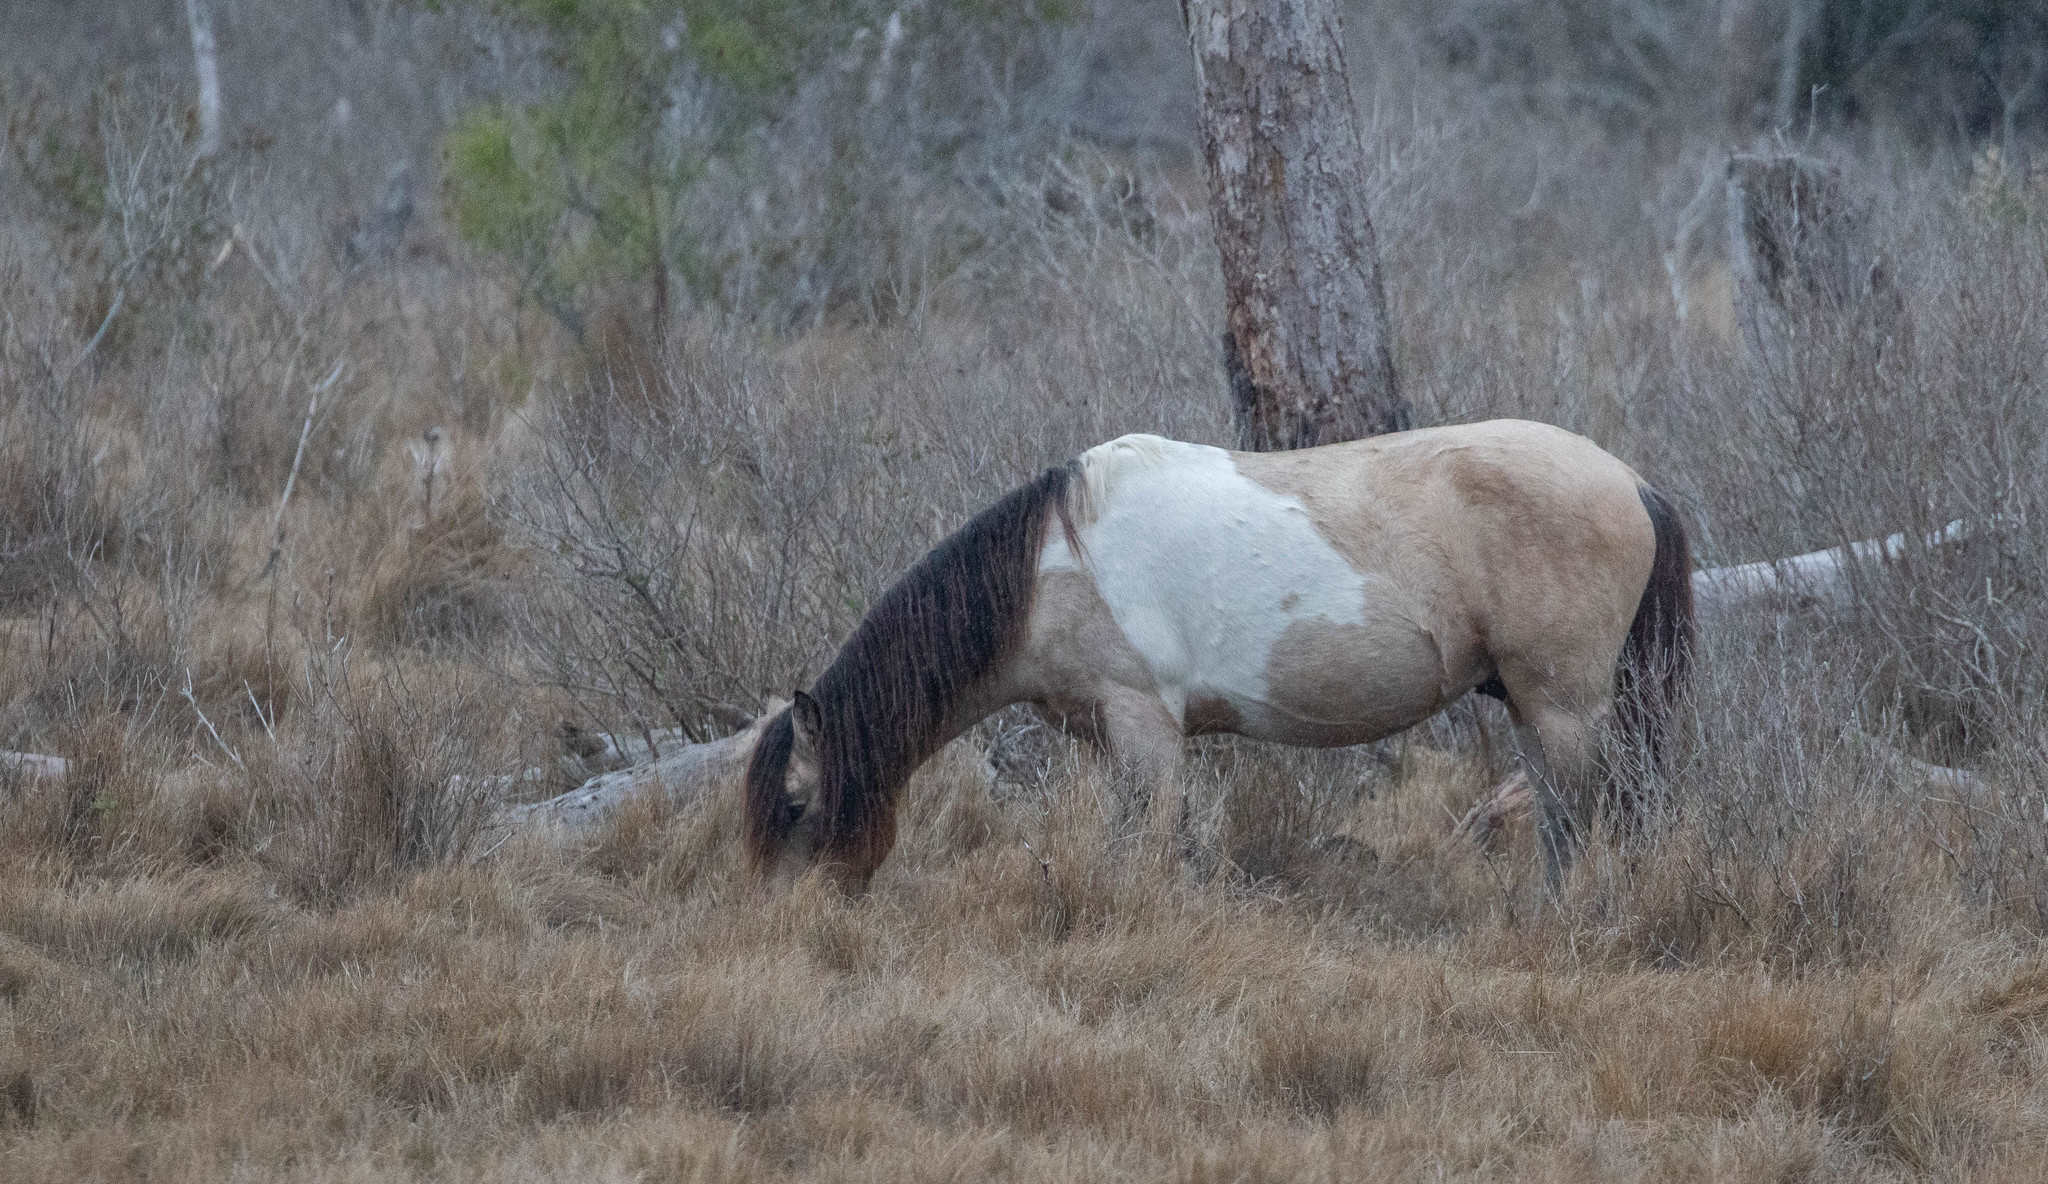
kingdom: Animalia
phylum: Chordata
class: Mammalia
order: Perissodactyla
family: Equidae
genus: Equus
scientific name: Equus caballus
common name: Horse
